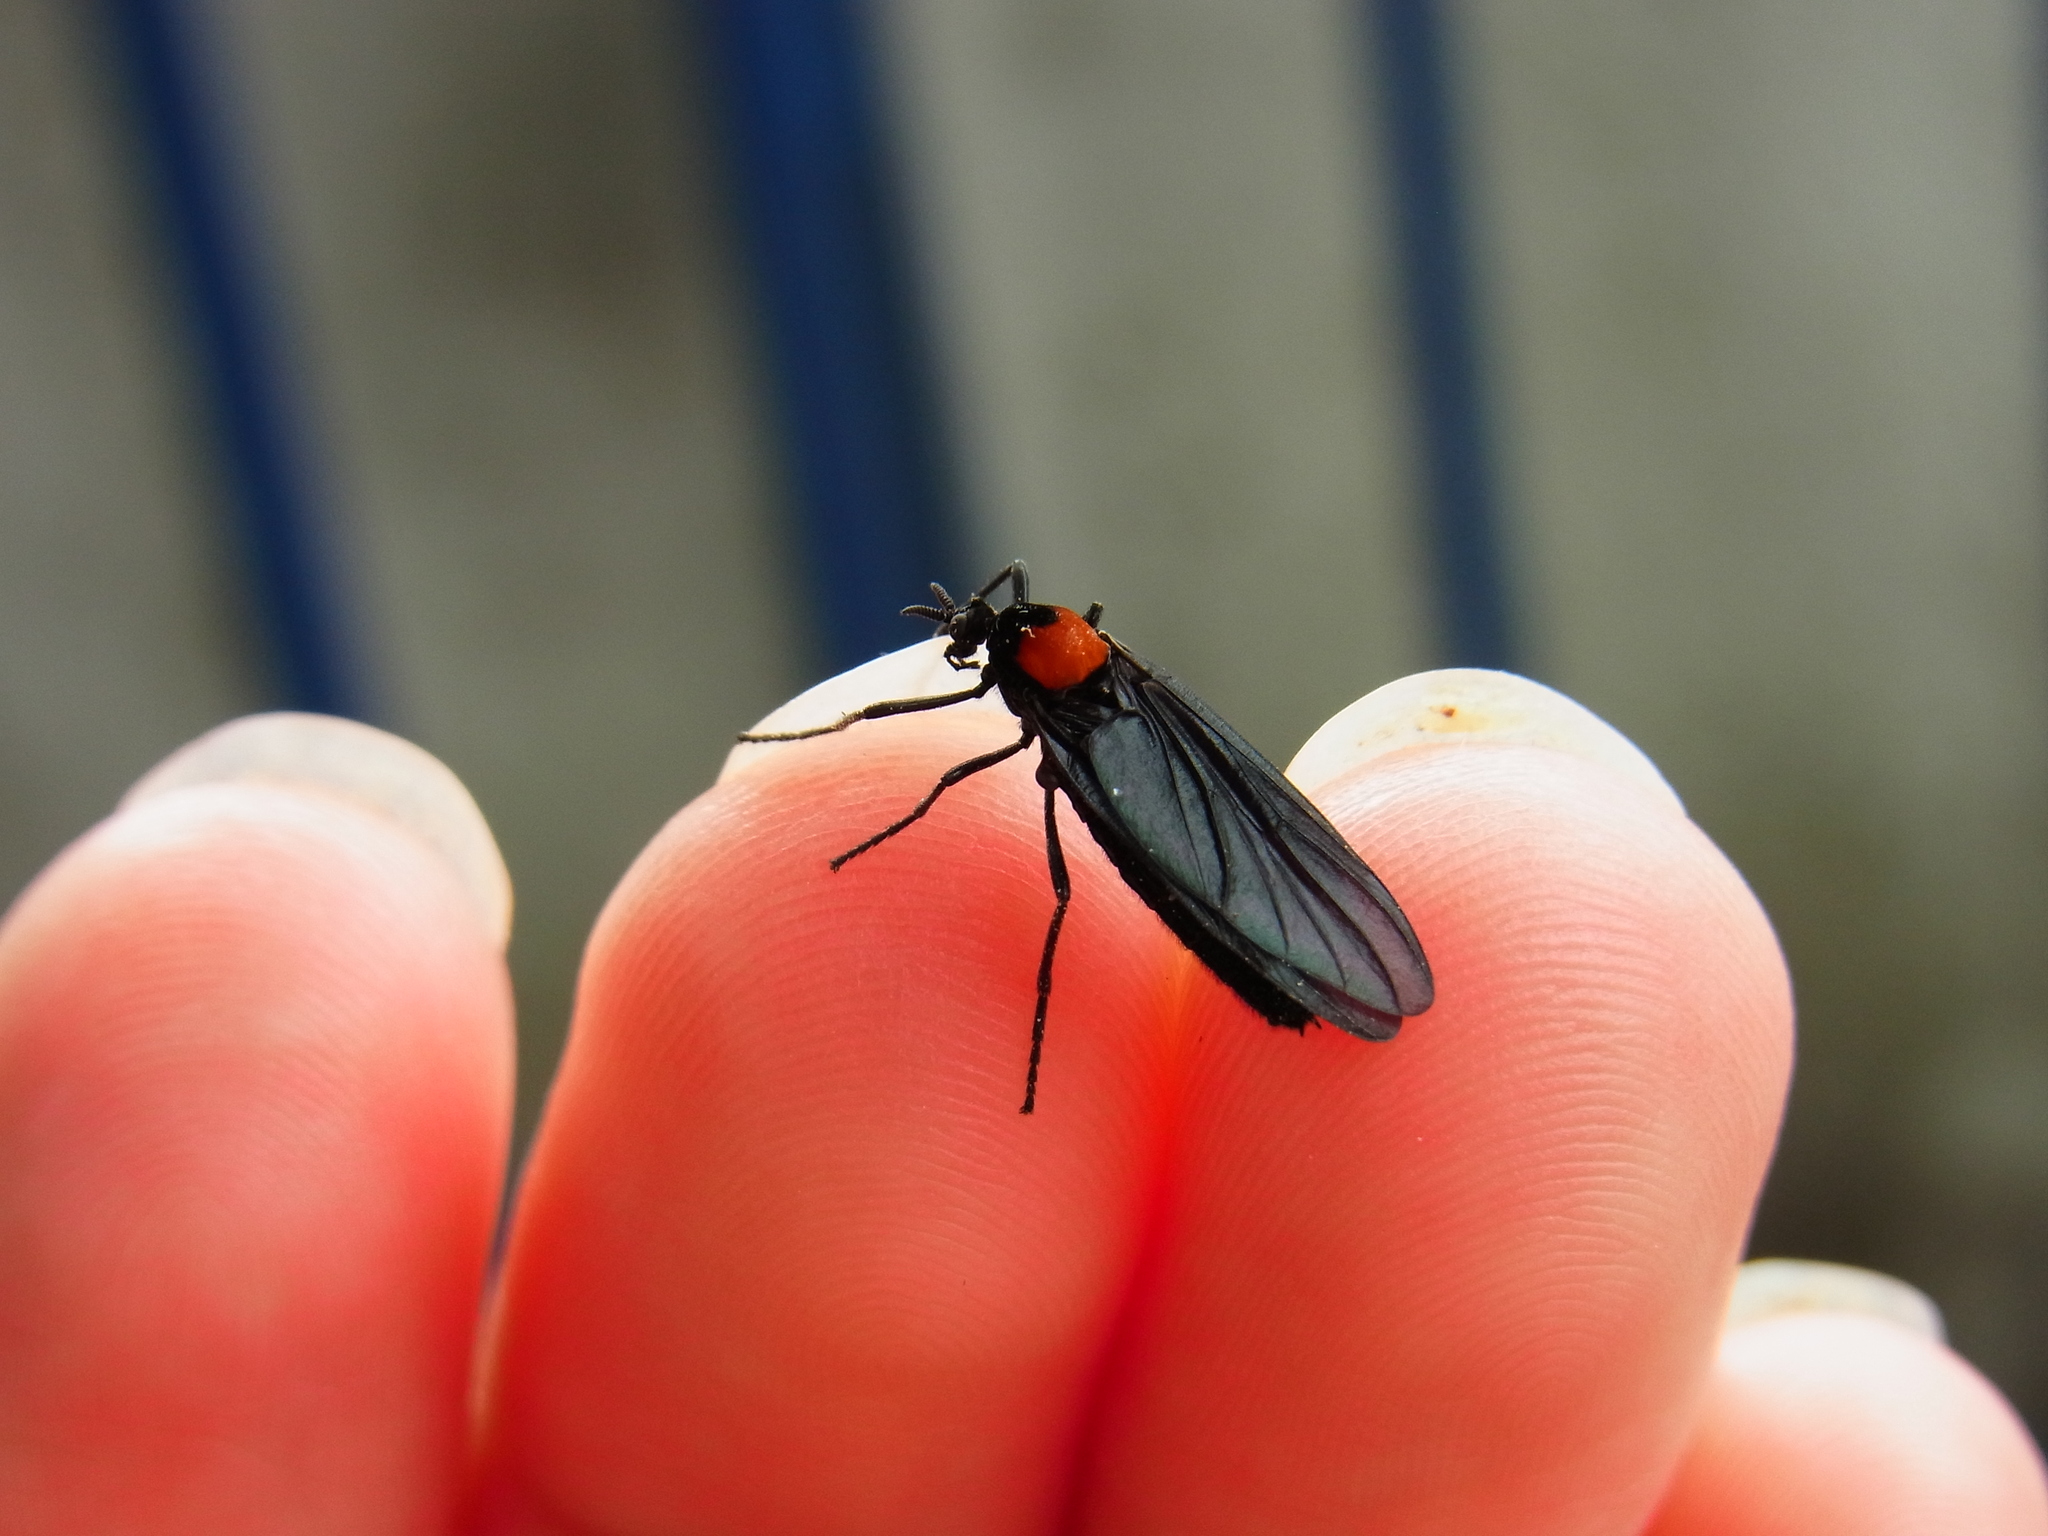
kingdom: Animalia
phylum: Arthropoda
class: Insecta
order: Diptera
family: Bibionidae
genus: Penthetria
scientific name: Penthetria japonica
